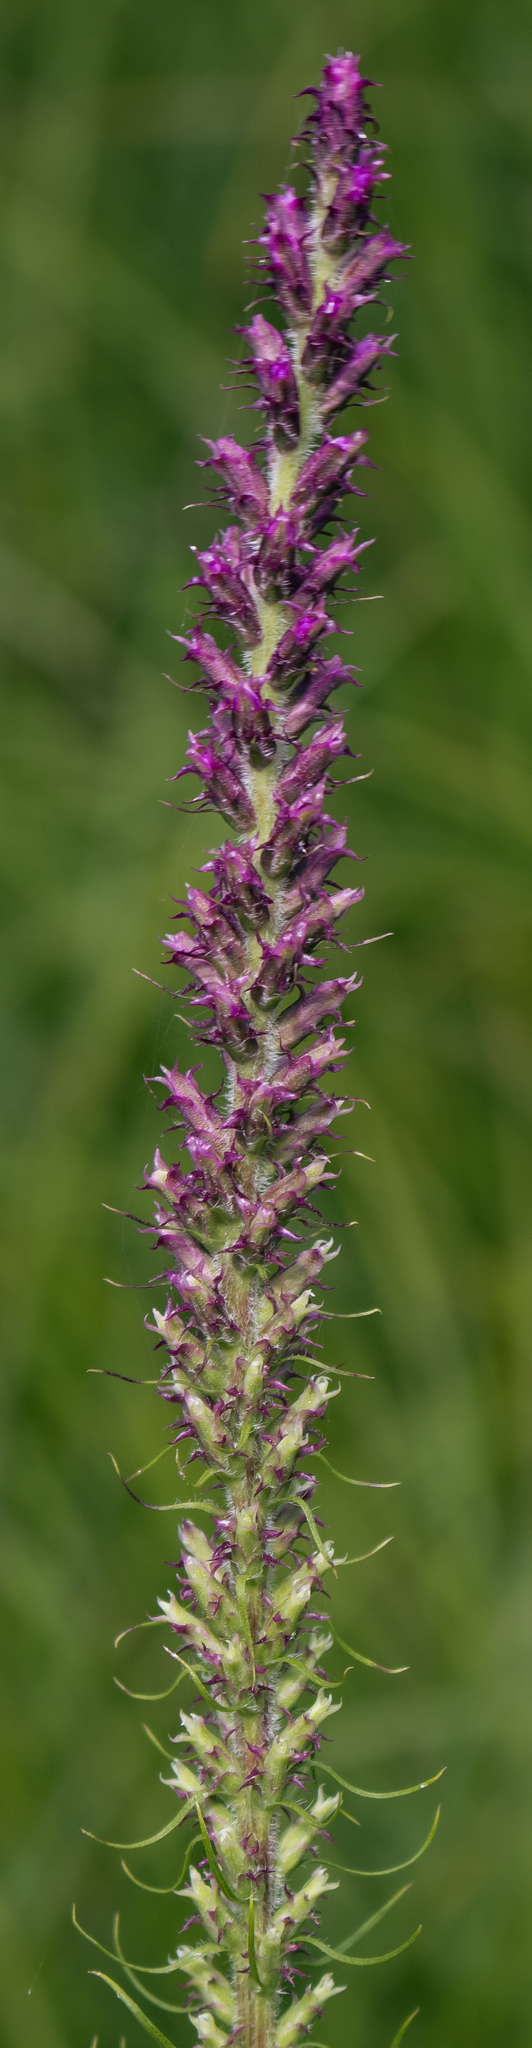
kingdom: Plantae
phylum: Tracheophyta
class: Magnoliopsida
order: Asterales
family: Asteraceae
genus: Liatris
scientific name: Liatris pycnostachya
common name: Cattail gayfeather
